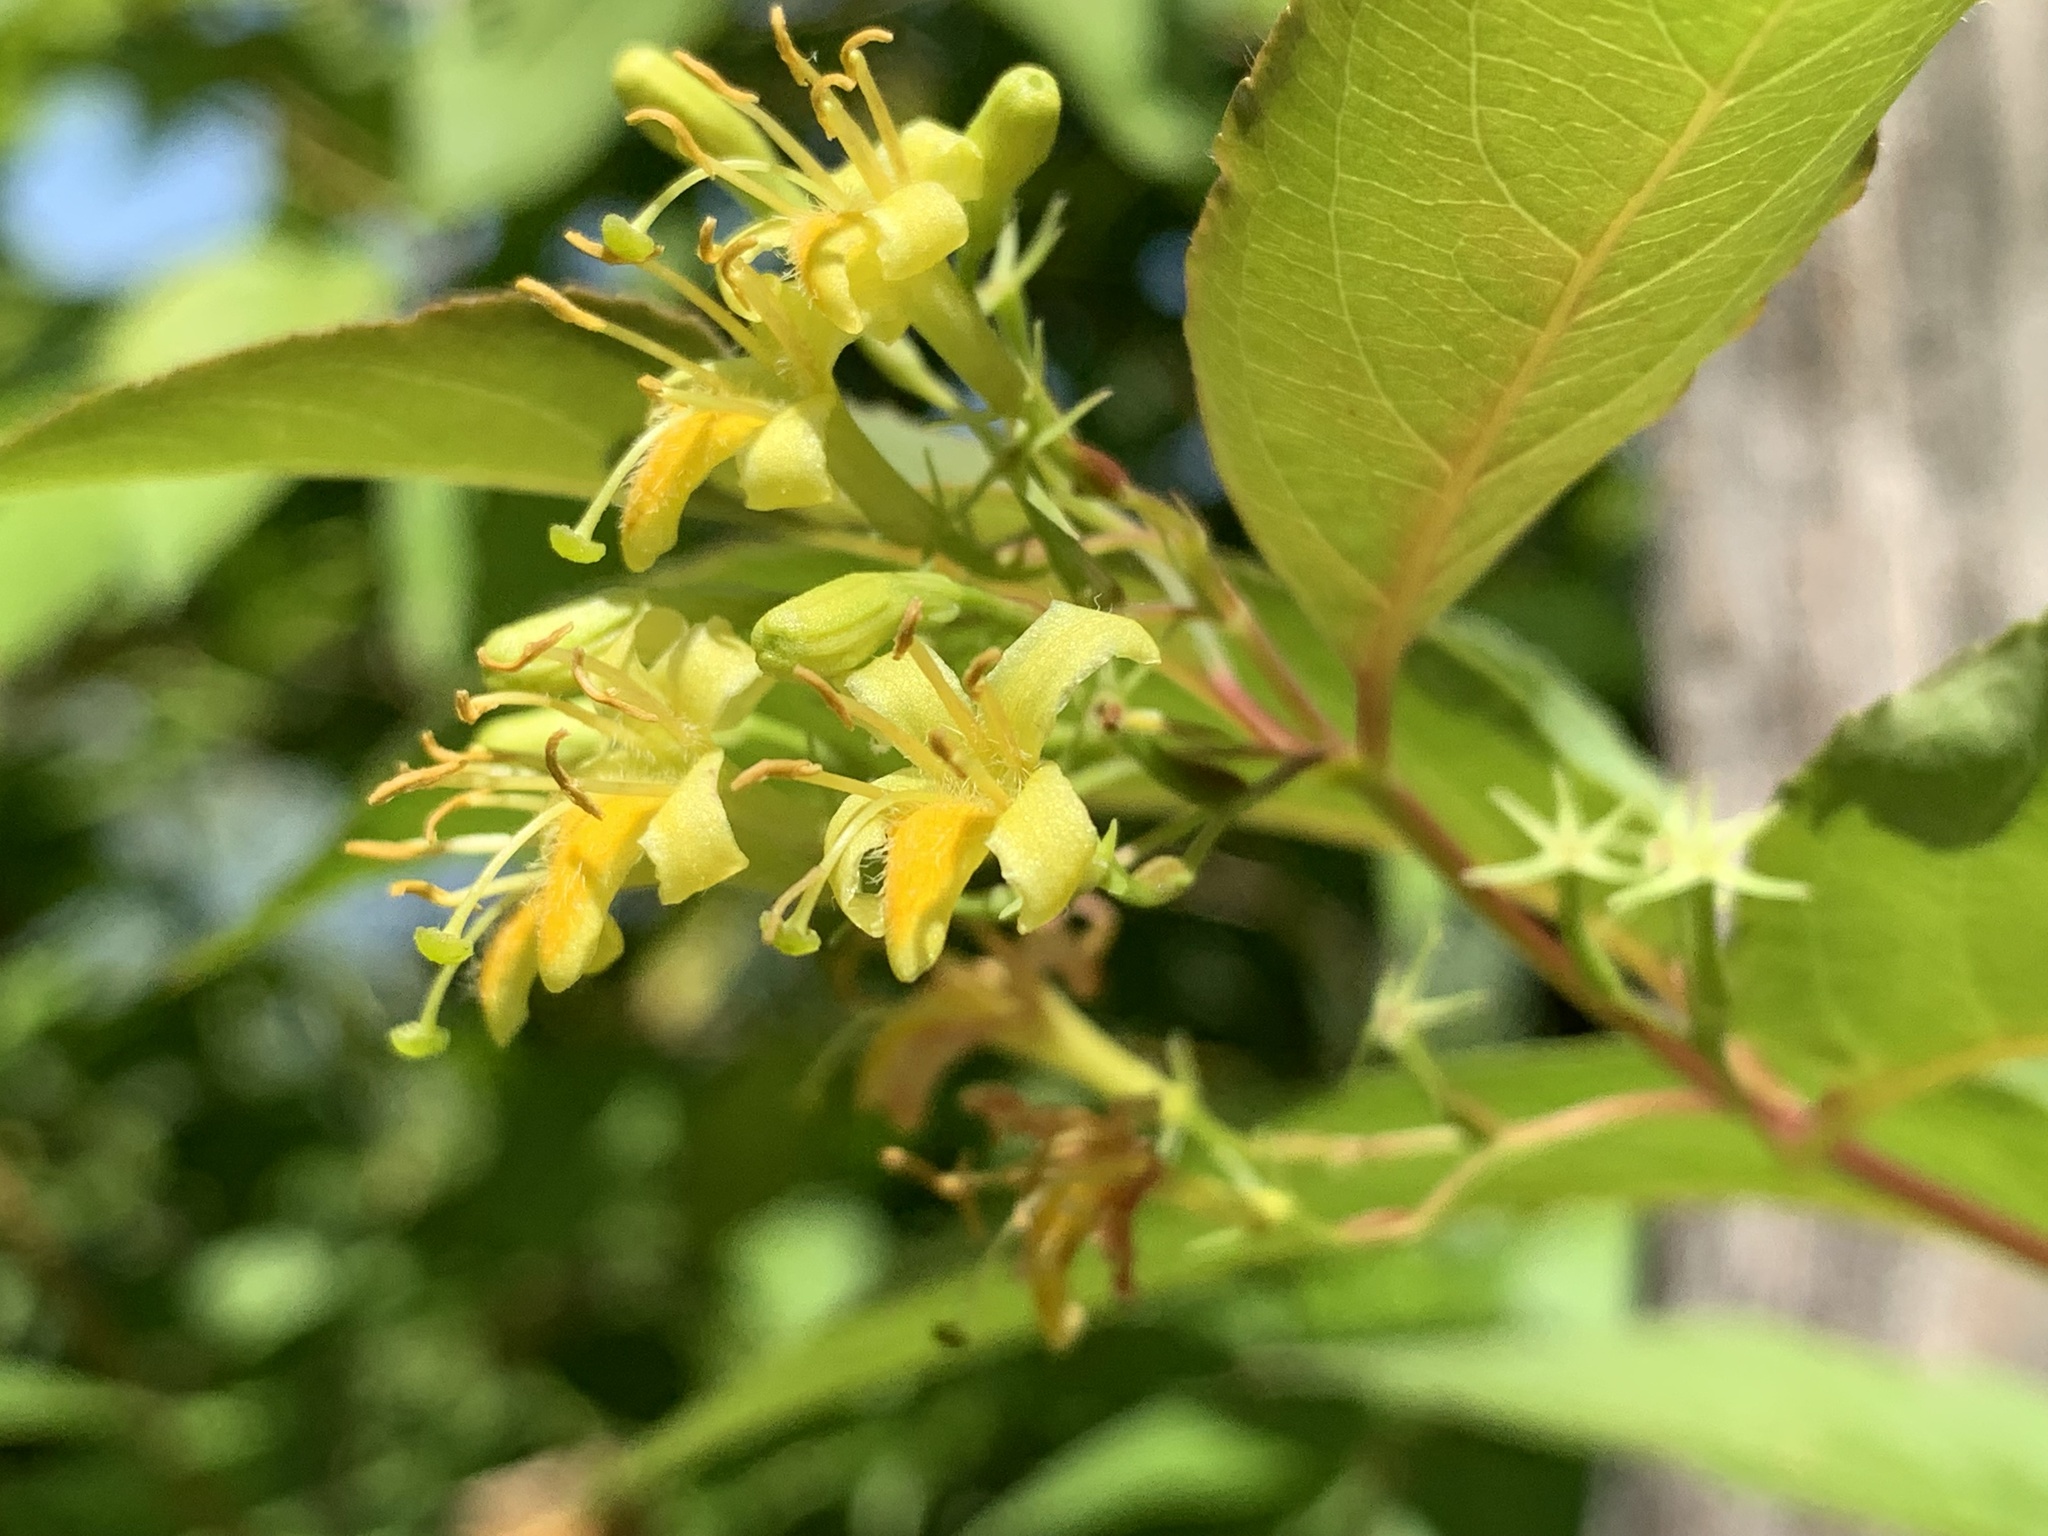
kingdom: Plantae
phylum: Tracheophyta
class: Magnoliopsida
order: Dipsacales
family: Caprifoliaceae
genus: Diervilla
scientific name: Diervilla lonicera
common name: Bush-honeysuckle
